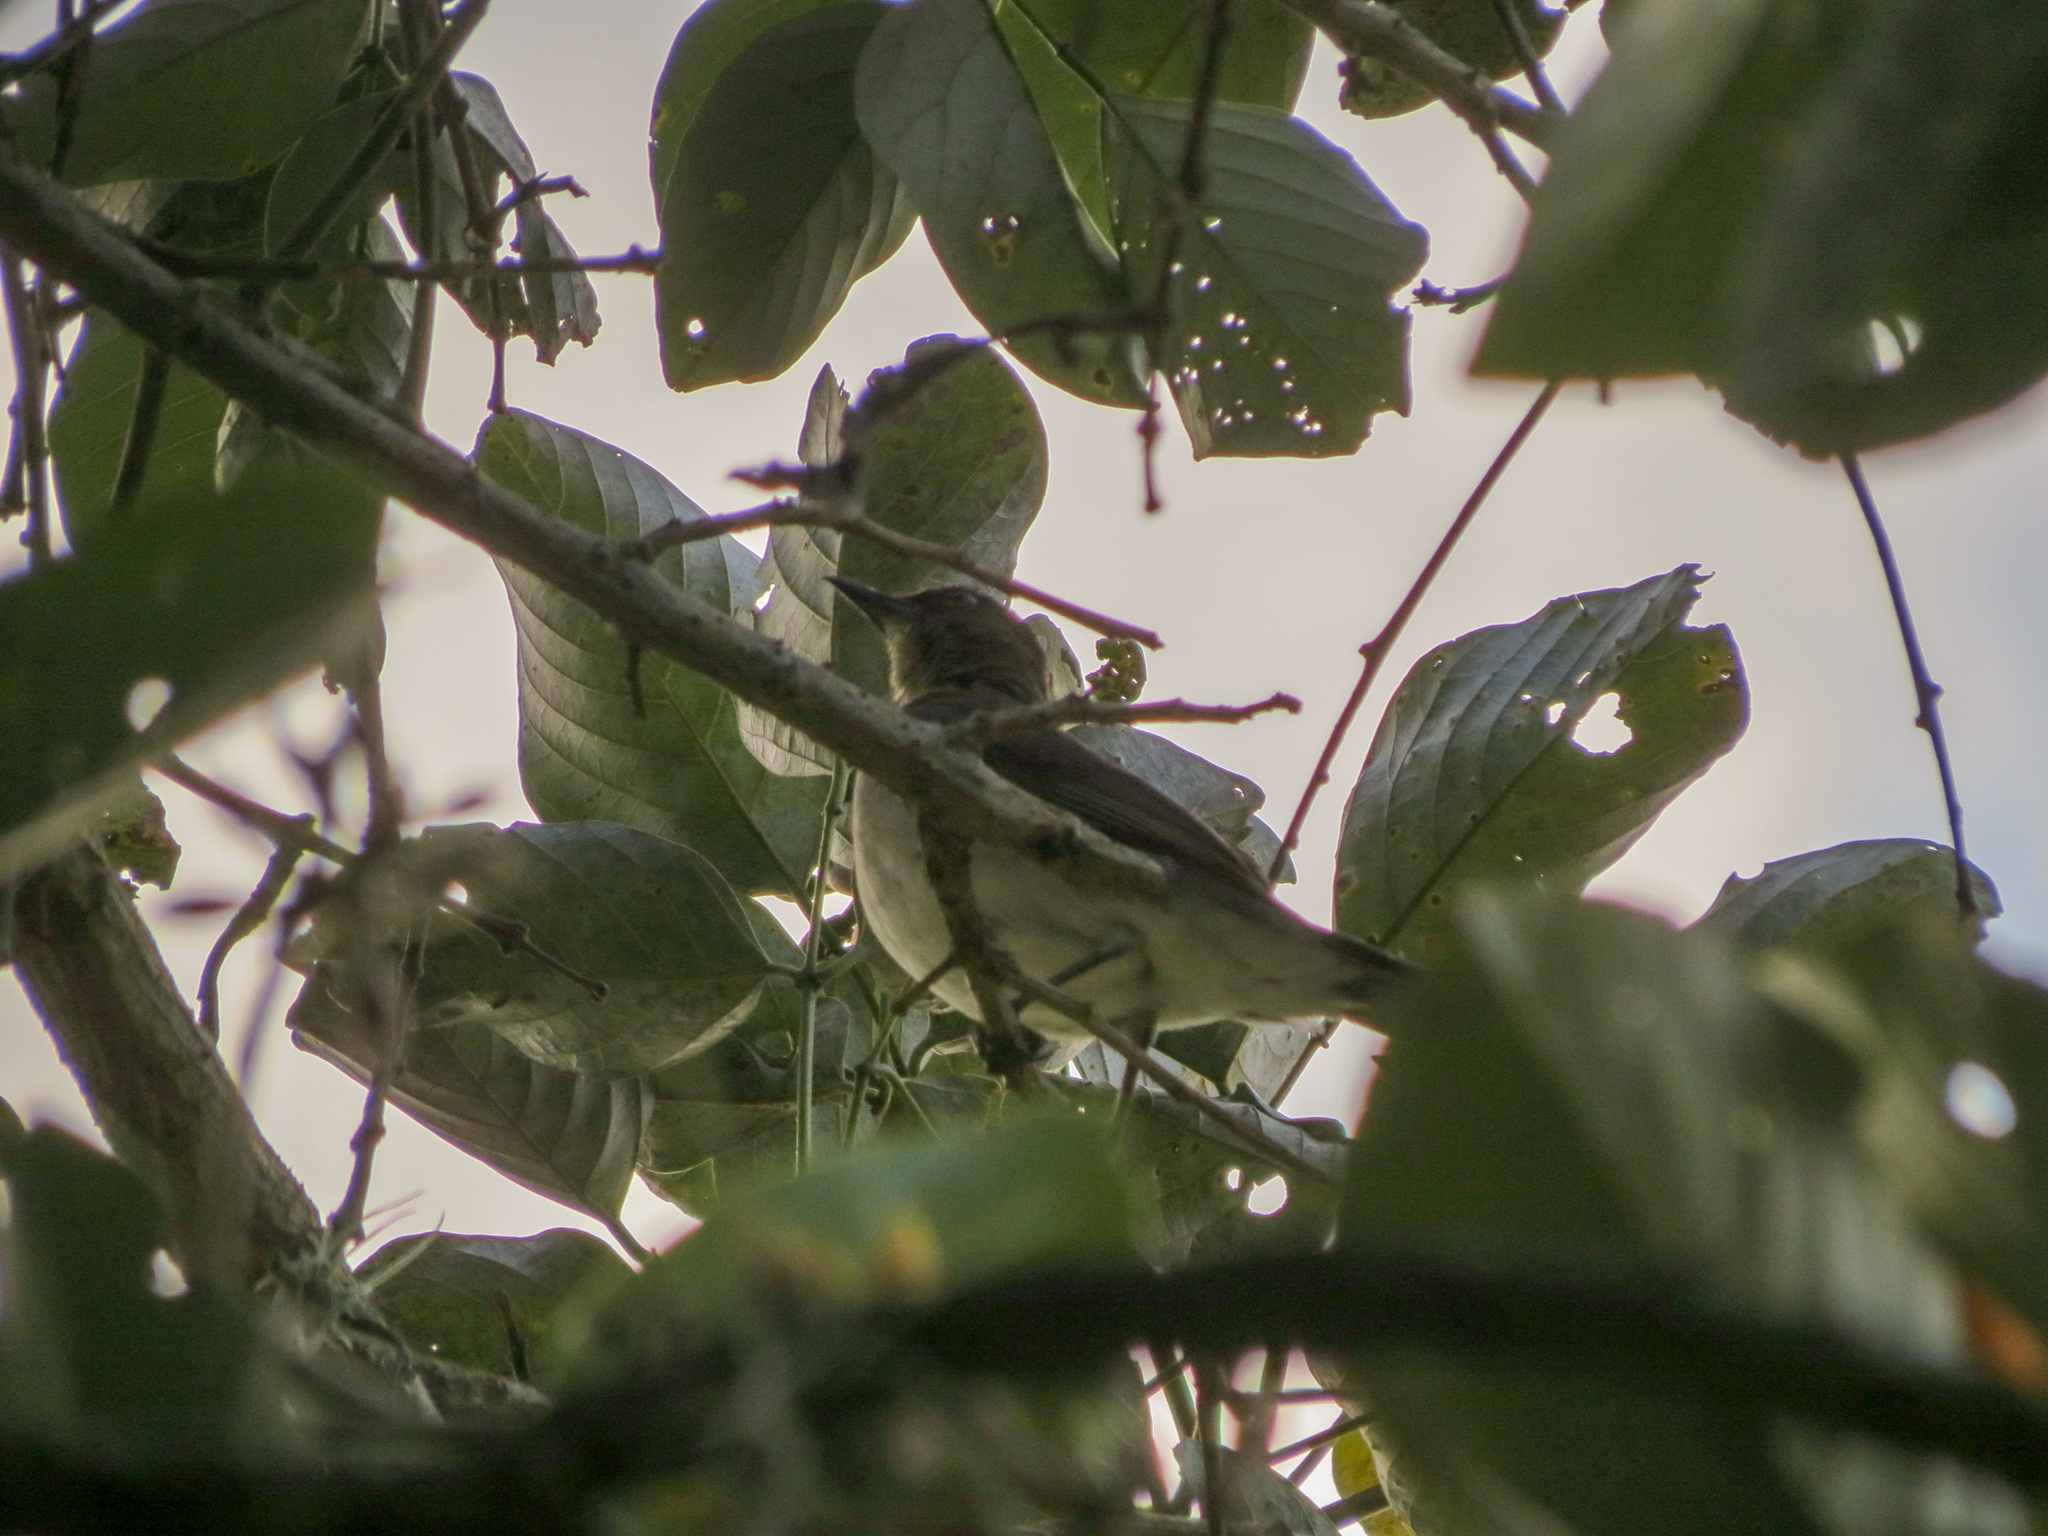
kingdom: Animalia
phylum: Chordata
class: Aves
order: Passeriformes
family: Turdidae
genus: Turdus
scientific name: Turdus ignobilis
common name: Black-billed thrush
